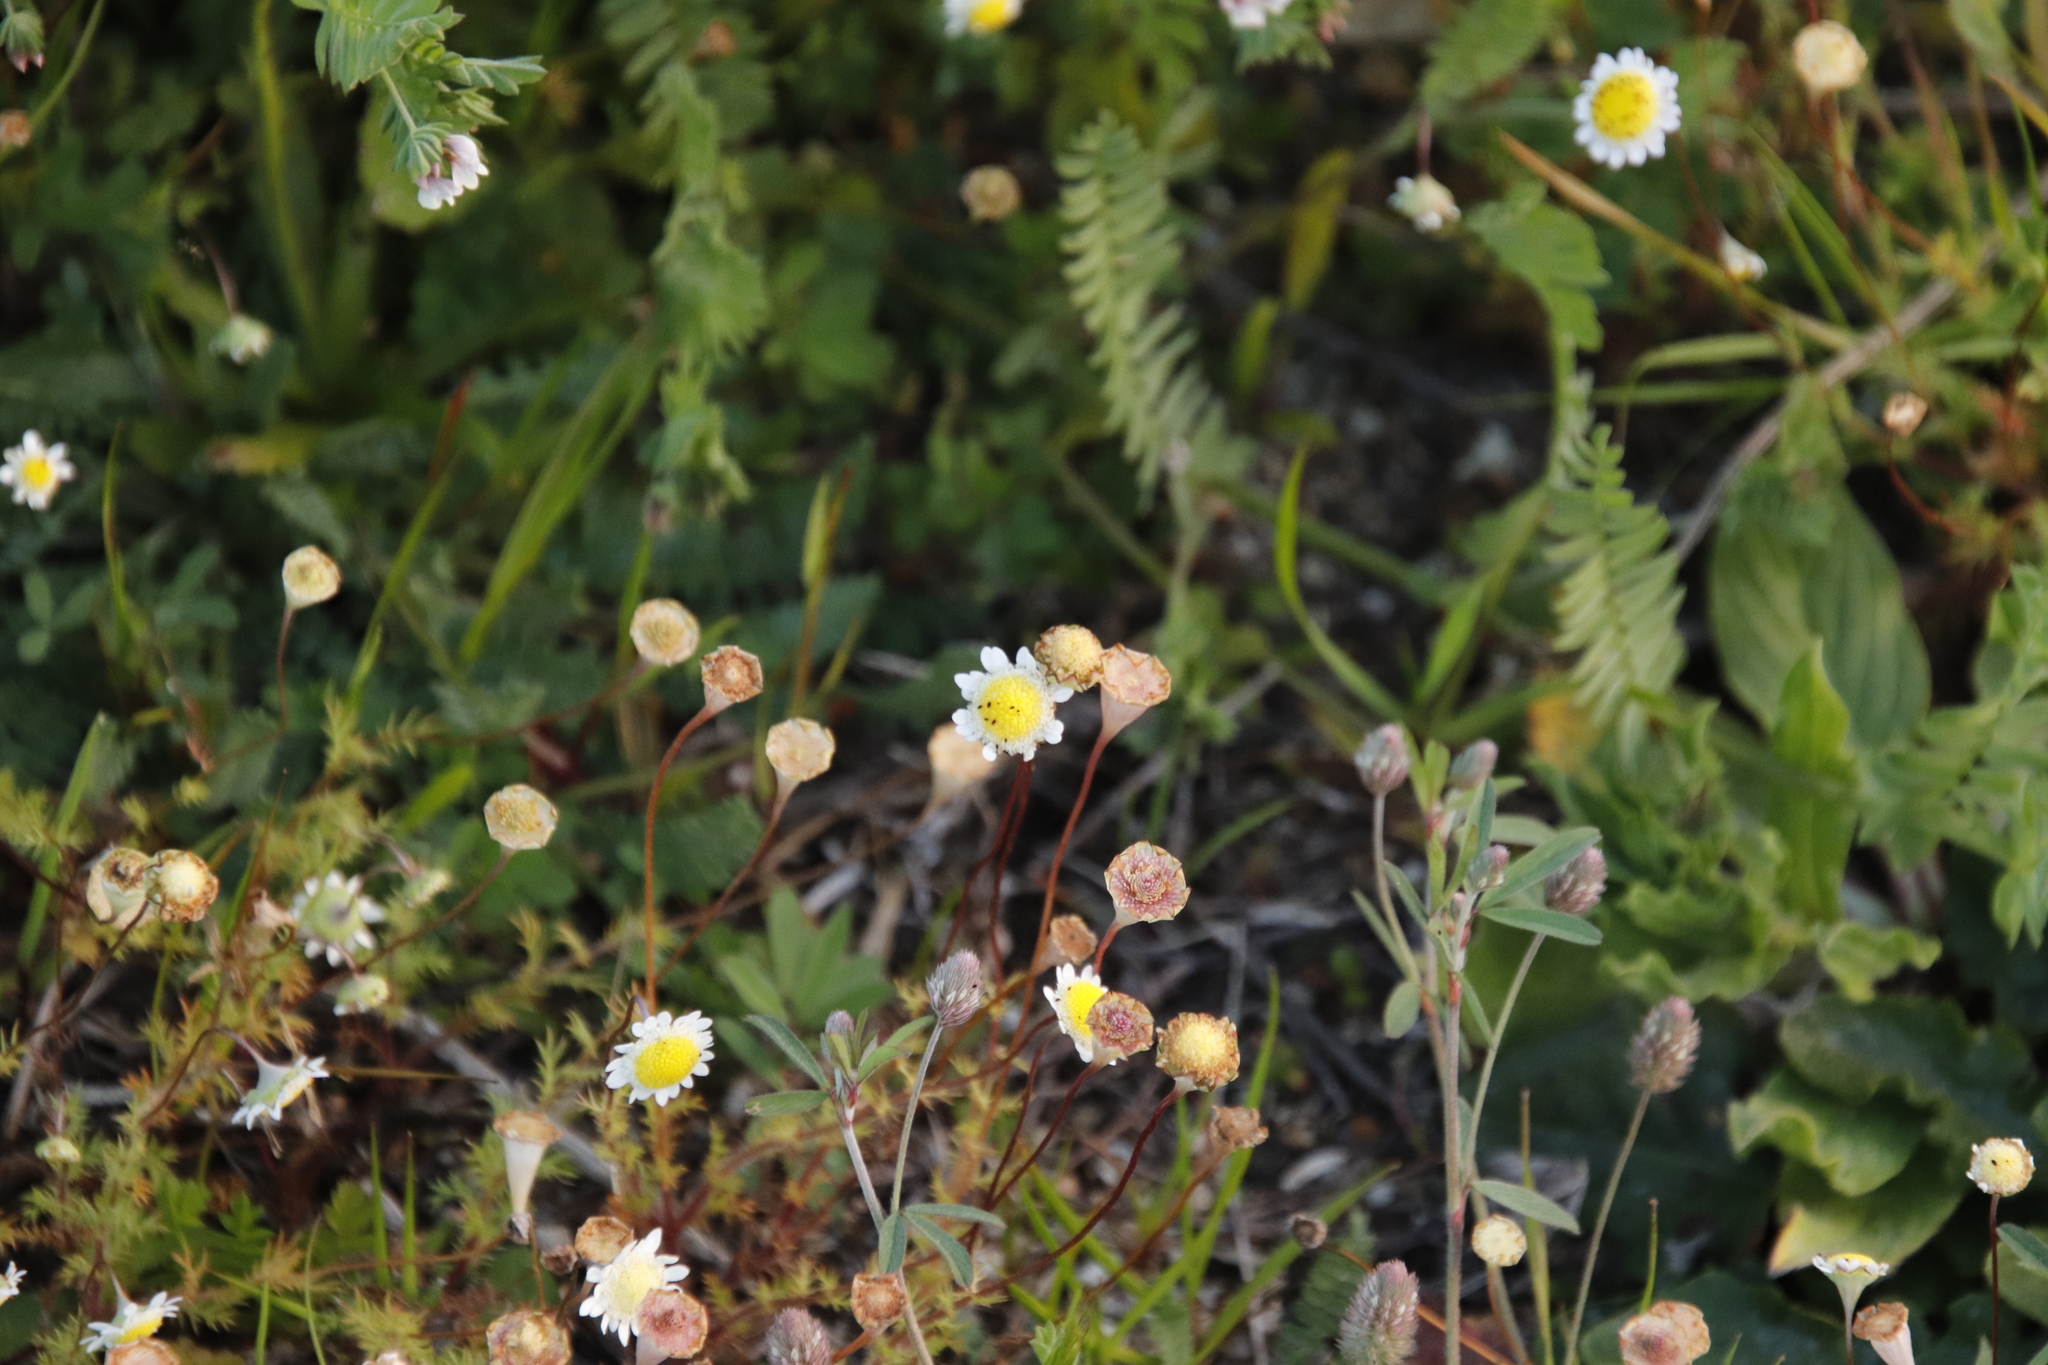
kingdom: Plantae
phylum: Tracheophyta
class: Magnoliopsida
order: Asterales
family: Asteraceae
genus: Cotula
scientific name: Cotula turbinata
